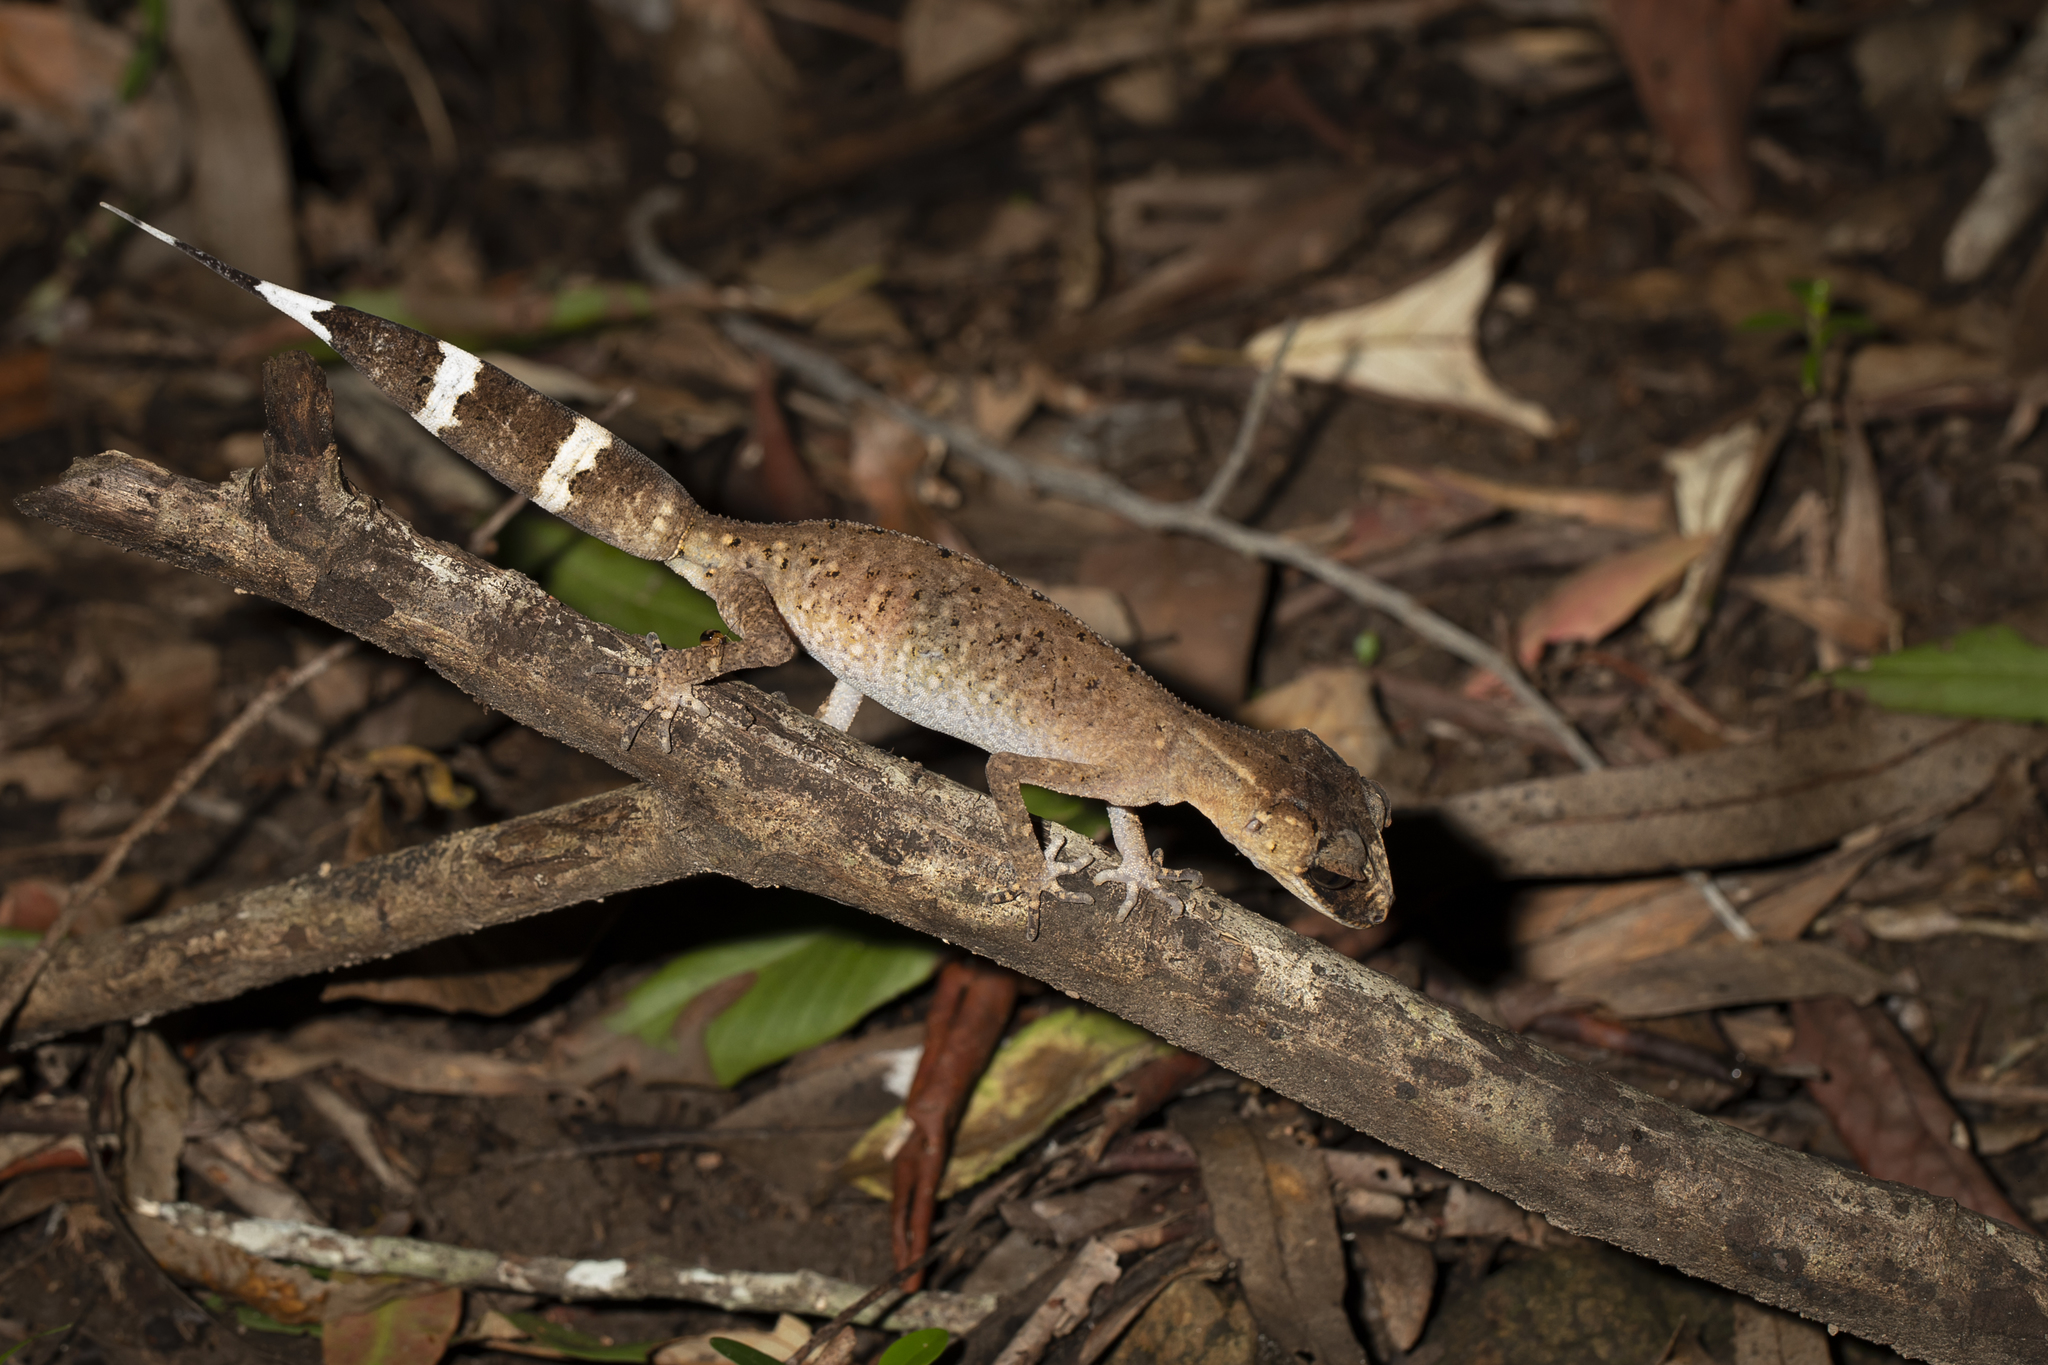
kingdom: Animalia
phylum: Chordata
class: Squamata
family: Carphodactylidae
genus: Carphodactylus
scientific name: Carphodactylus laevis
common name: Chameleon gecko
